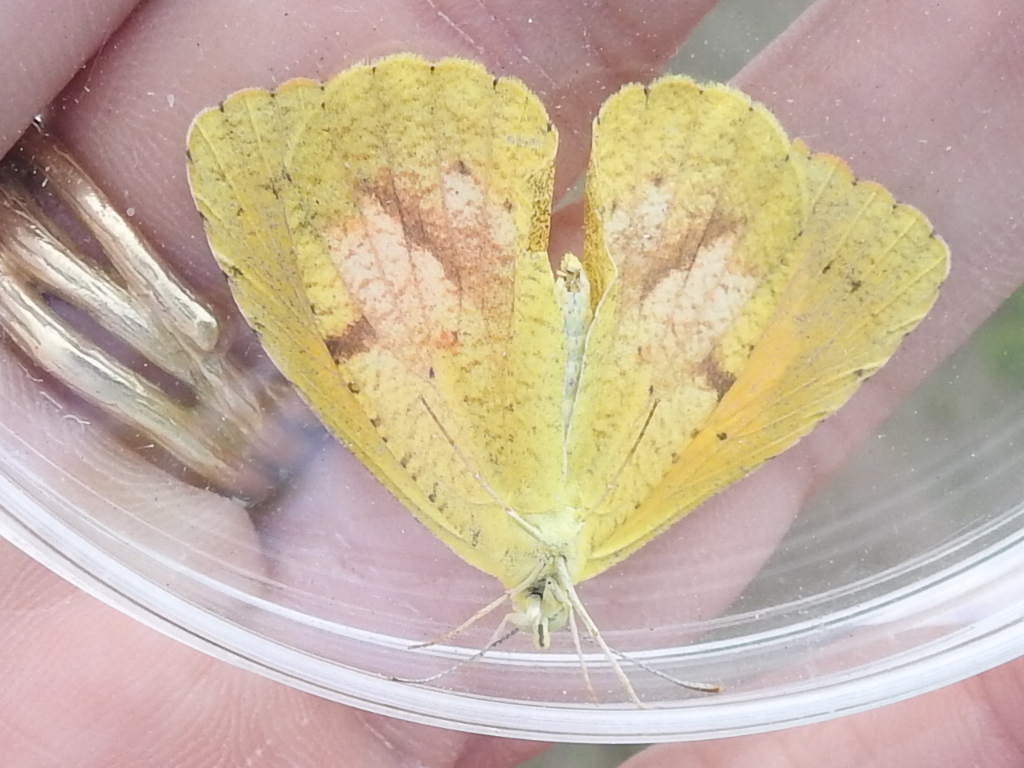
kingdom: Animalia
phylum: Arthropoda
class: Insecta
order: Lepidoptera
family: Pieridae
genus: Abaeis
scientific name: Abaeis nicippe
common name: Sleepy orange
